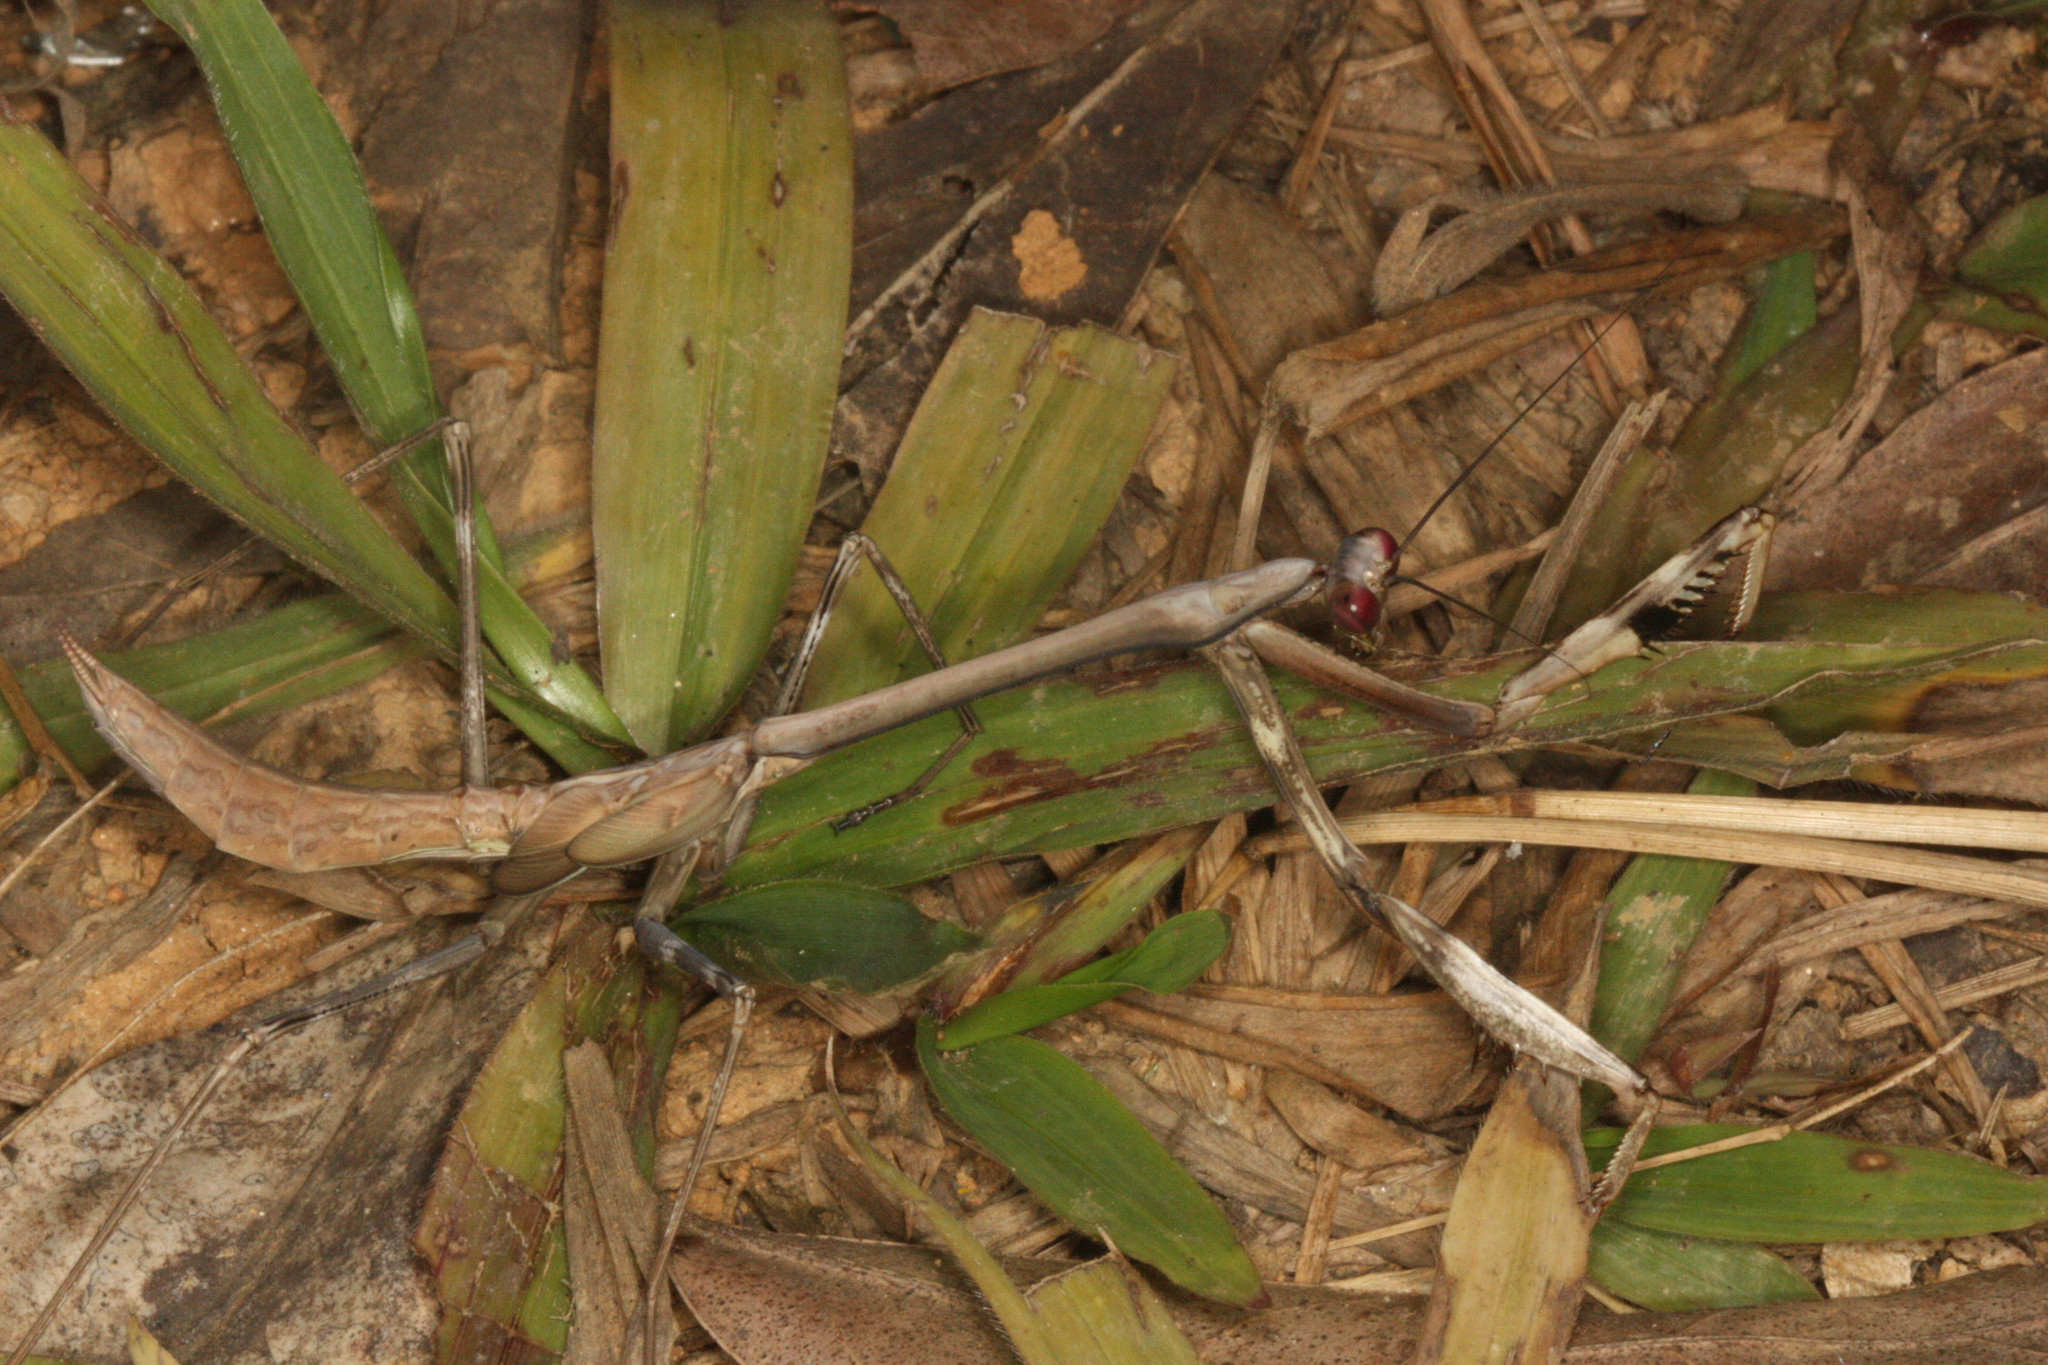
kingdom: Animalia
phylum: Arthropoda
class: Insecta
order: Mantodea
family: Mantidae
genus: Tisma
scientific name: Tisma freyi
